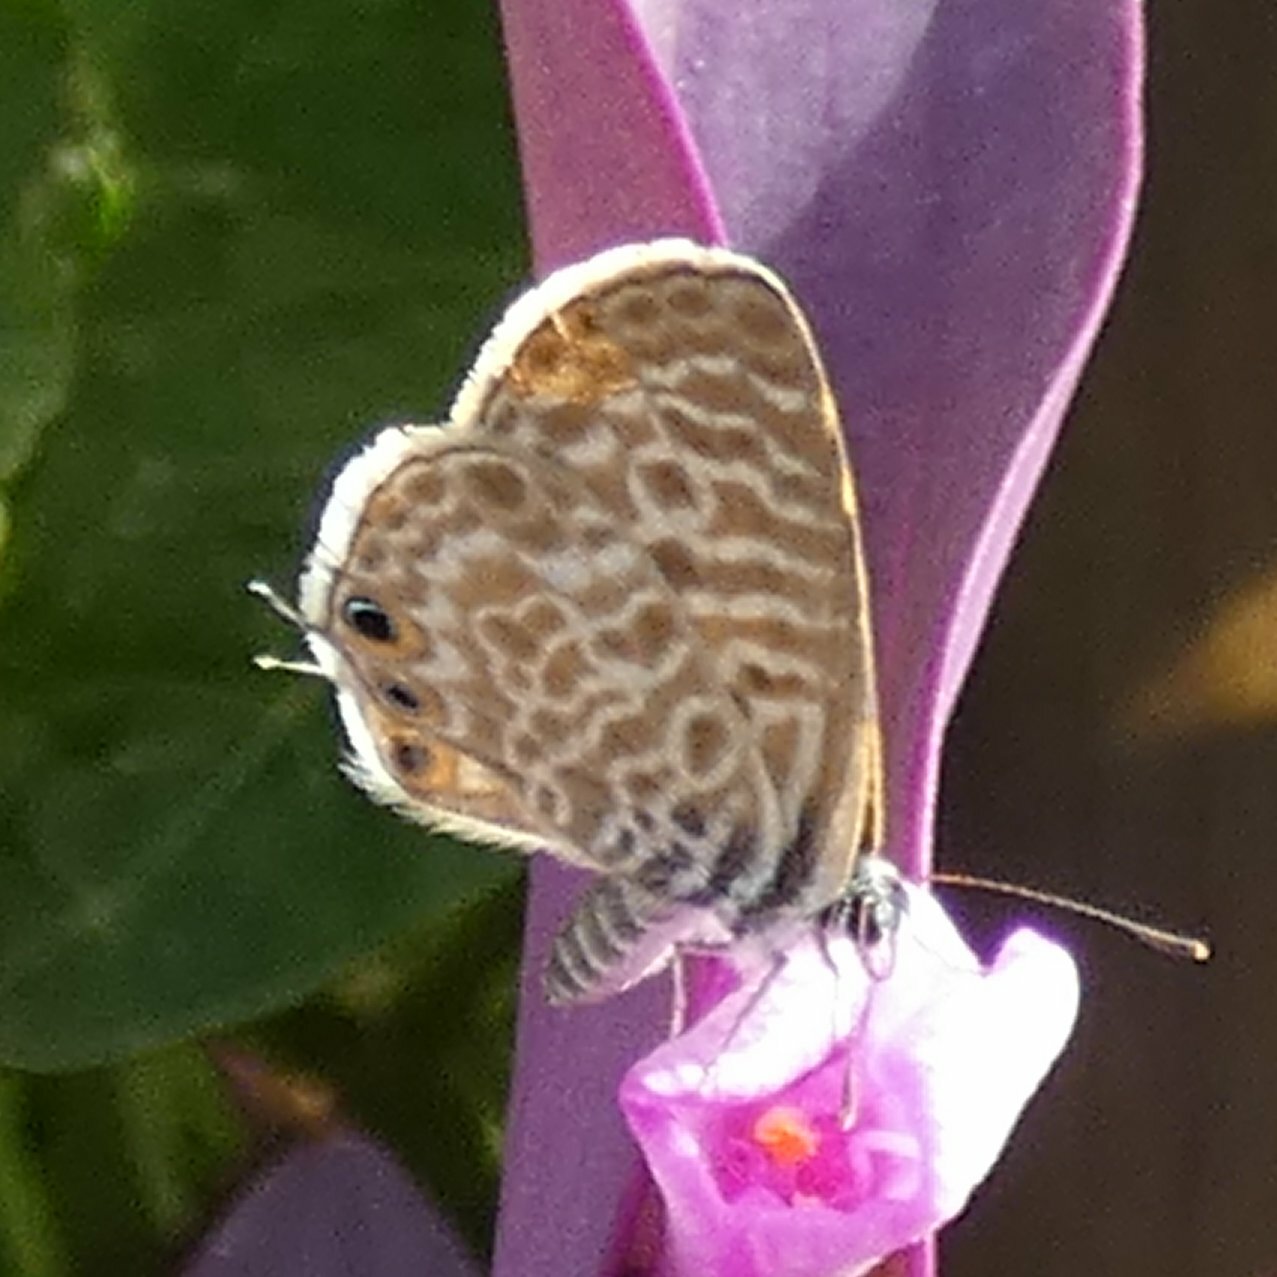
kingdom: Animalia
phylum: Arthropoda
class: Insecta
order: Lepidoptera
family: Lycaenidae
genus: Leptotes
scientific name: Leptotes pirithous
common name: Lang's short-tailed blue
